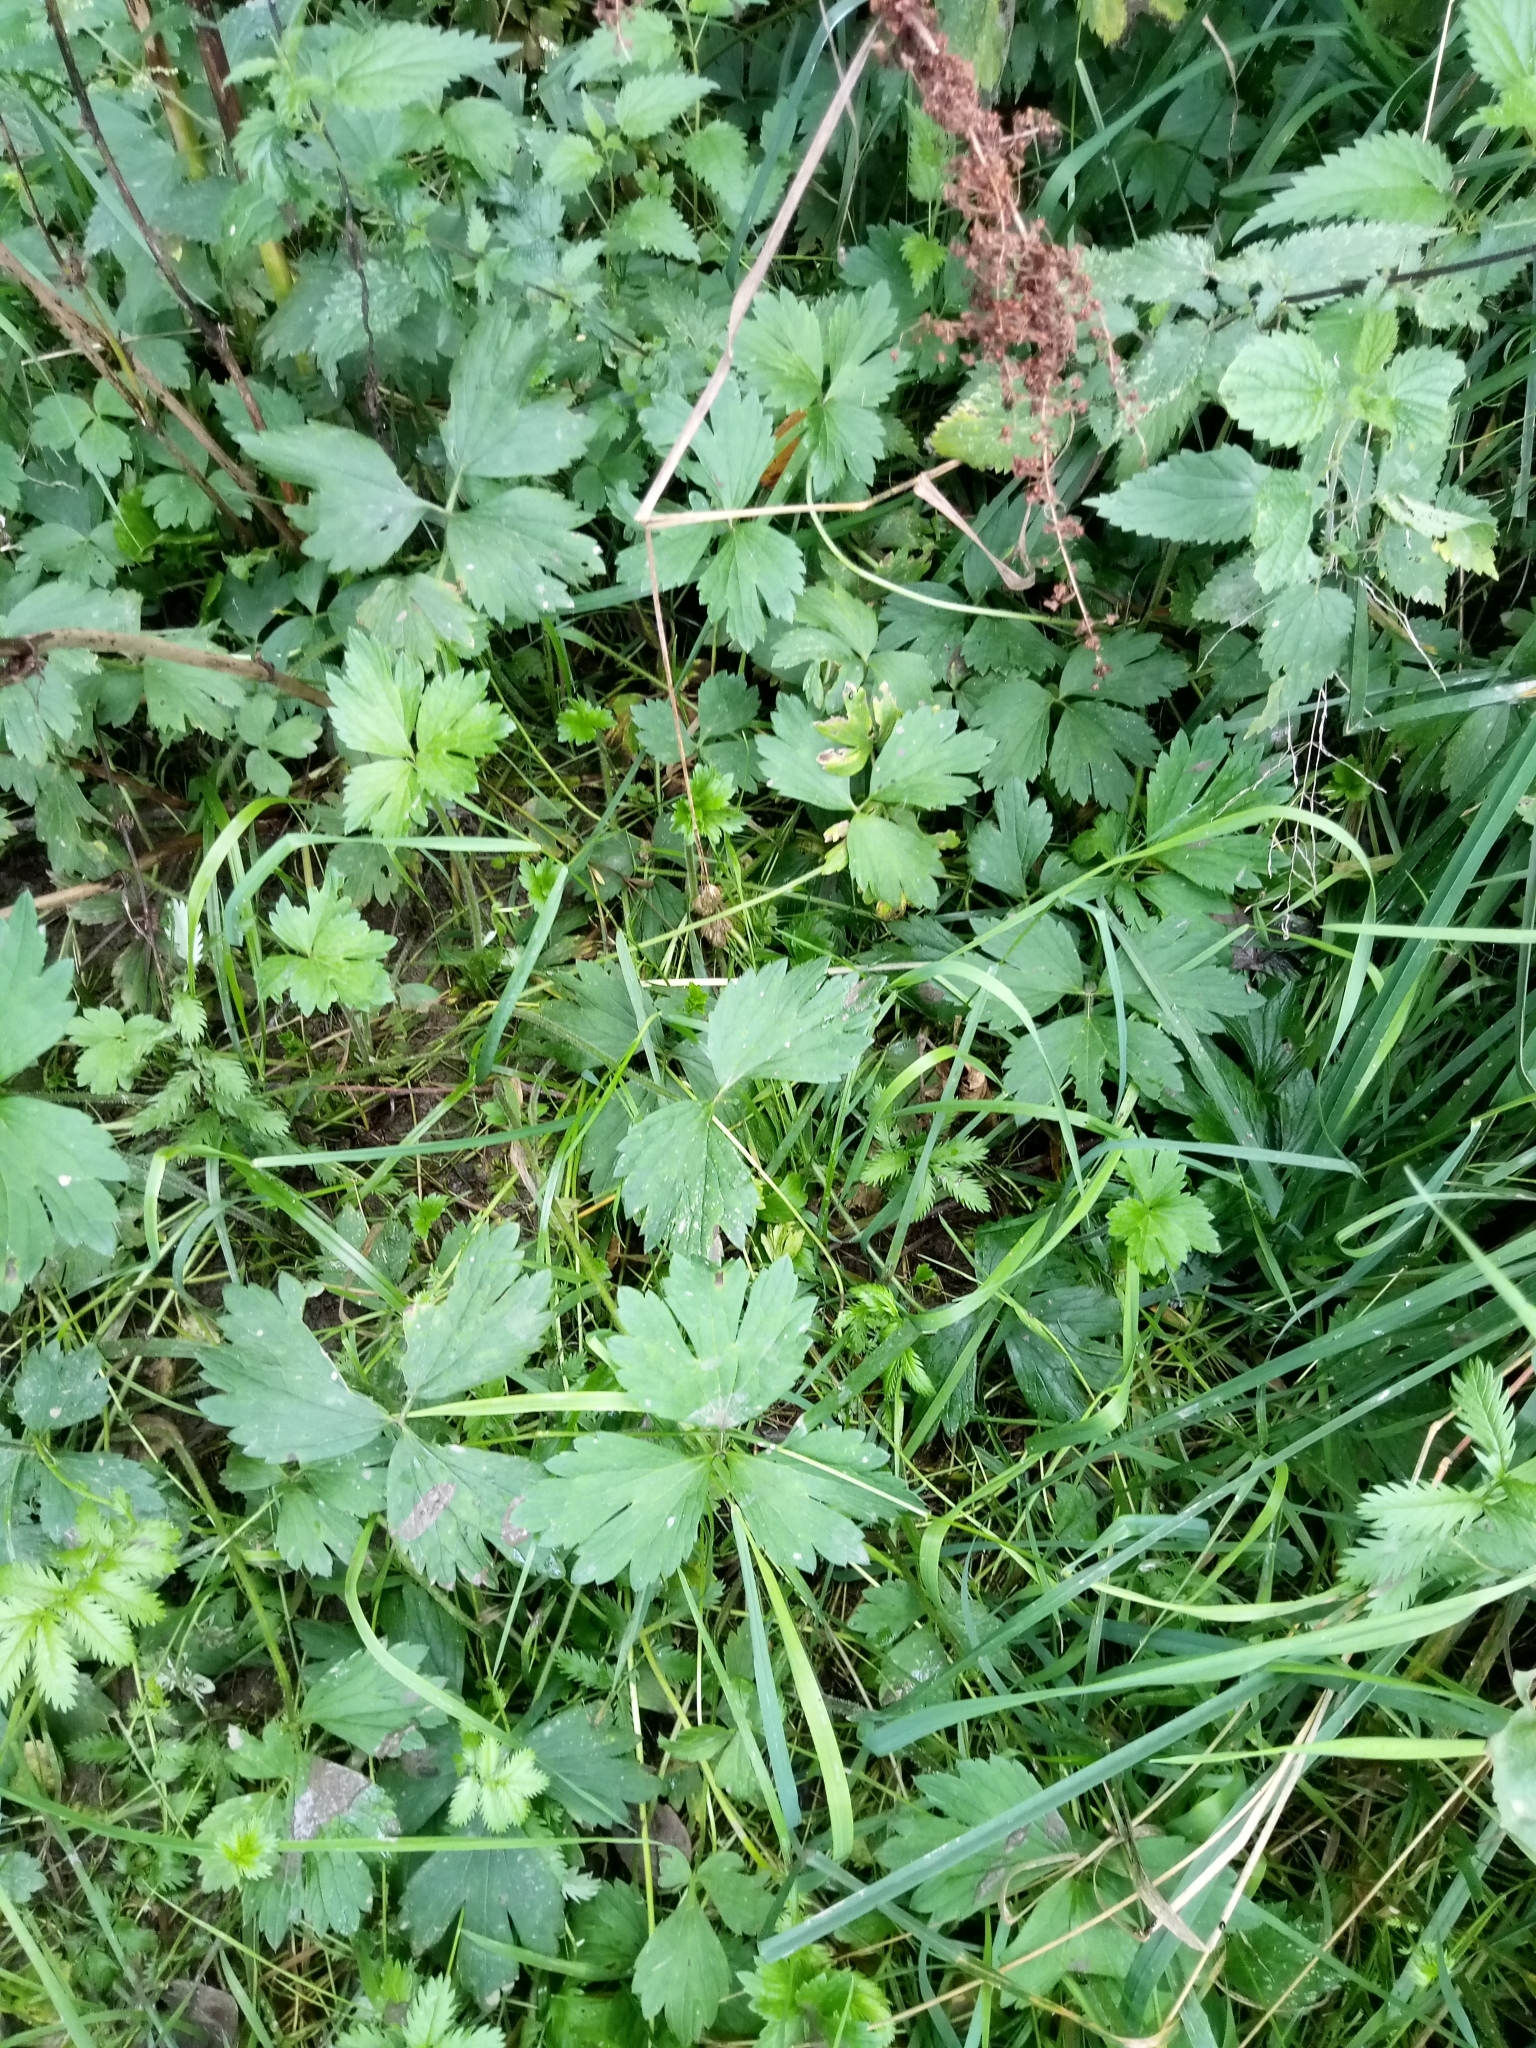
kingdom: Plantae
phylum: Tracheophyta
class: Magnoliopsida
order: Ranunculales
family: Ranunculaceae
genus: Ranunculus
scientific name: Ranunculus repens
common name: Creeping buttercup
